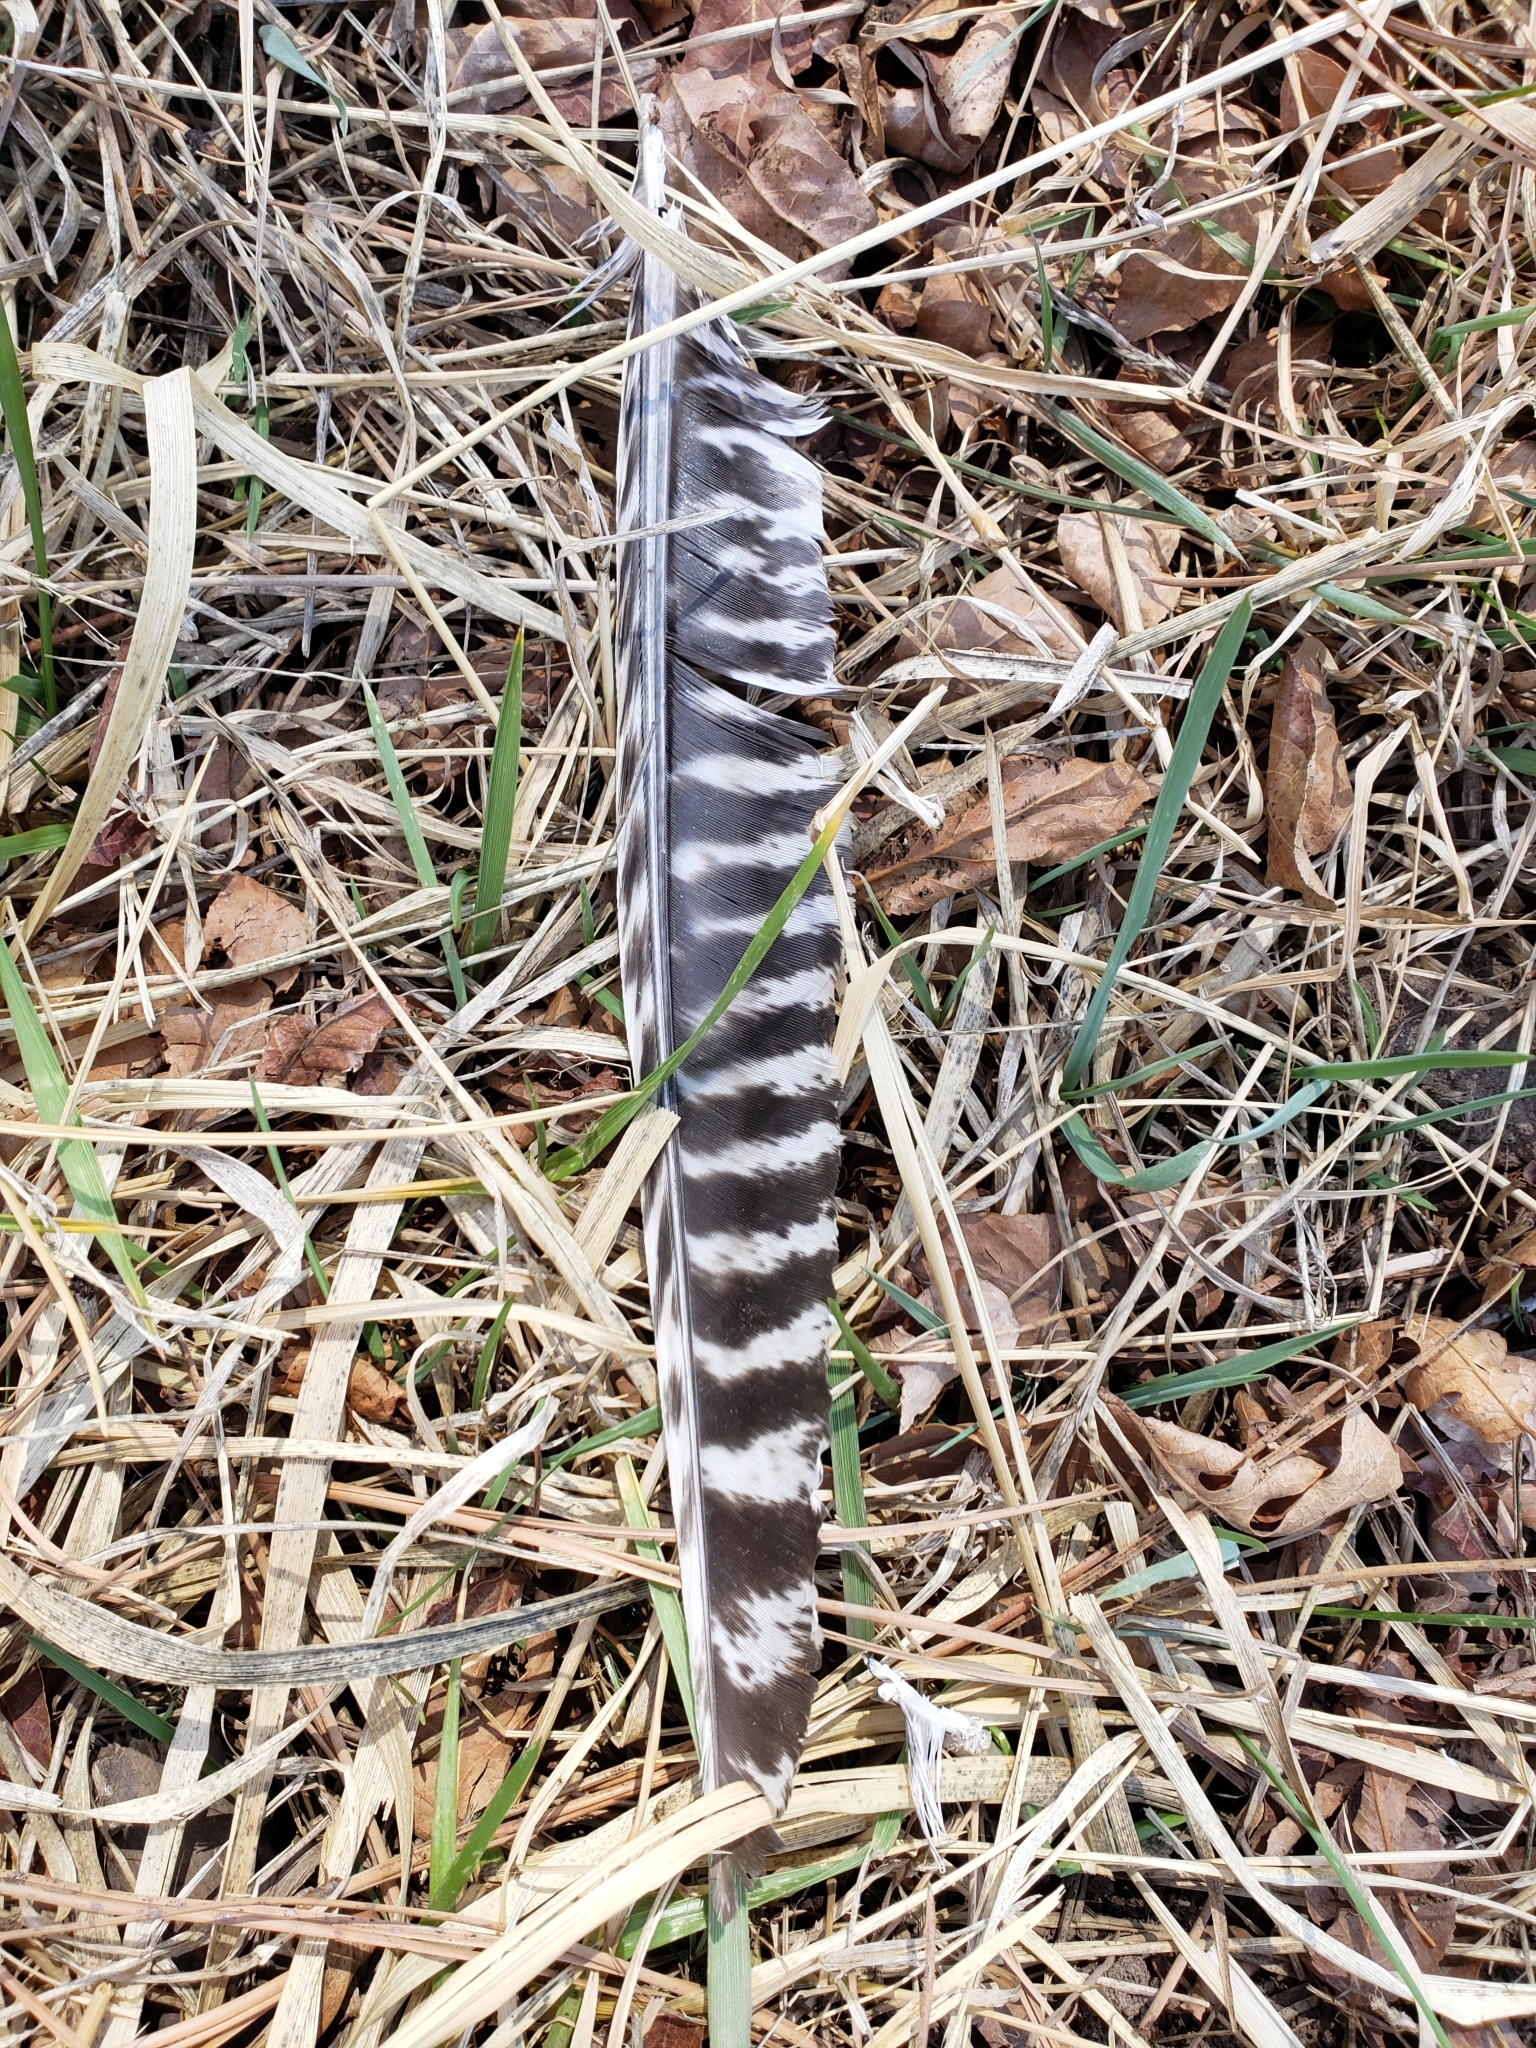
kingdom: Animalia
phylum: Chordata
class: Aves
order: Galliformes
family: Phasianidae
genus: Meleagris
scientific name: Meleagris gallopavo
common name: Wild turkey
